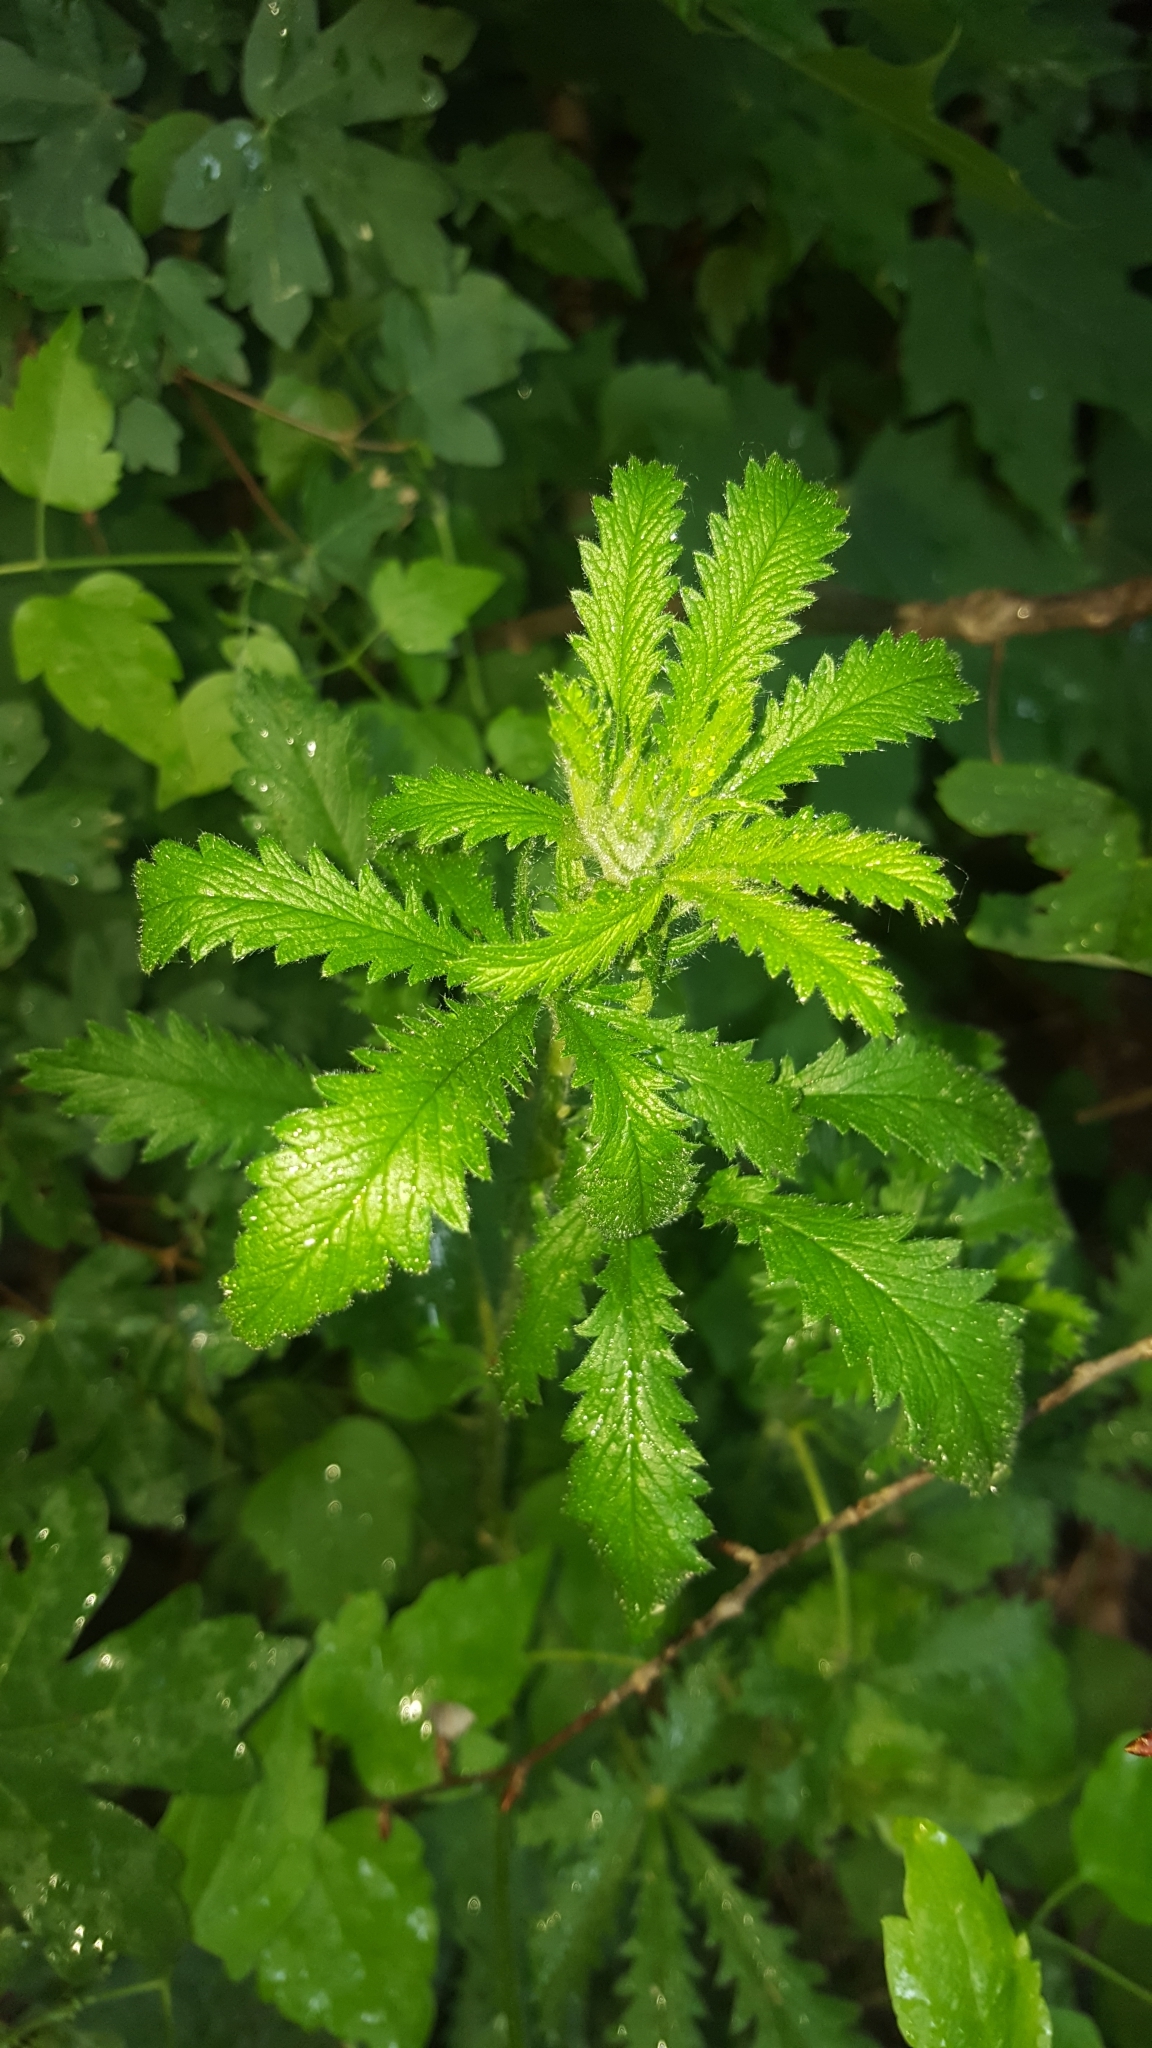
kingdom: Plantae
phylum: Tracheophyta
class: Magnoliopsida
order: Rosales
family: Rosaceae
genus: Potentilla
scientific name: Potentilla recta
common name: Sulphur cinquefoil
